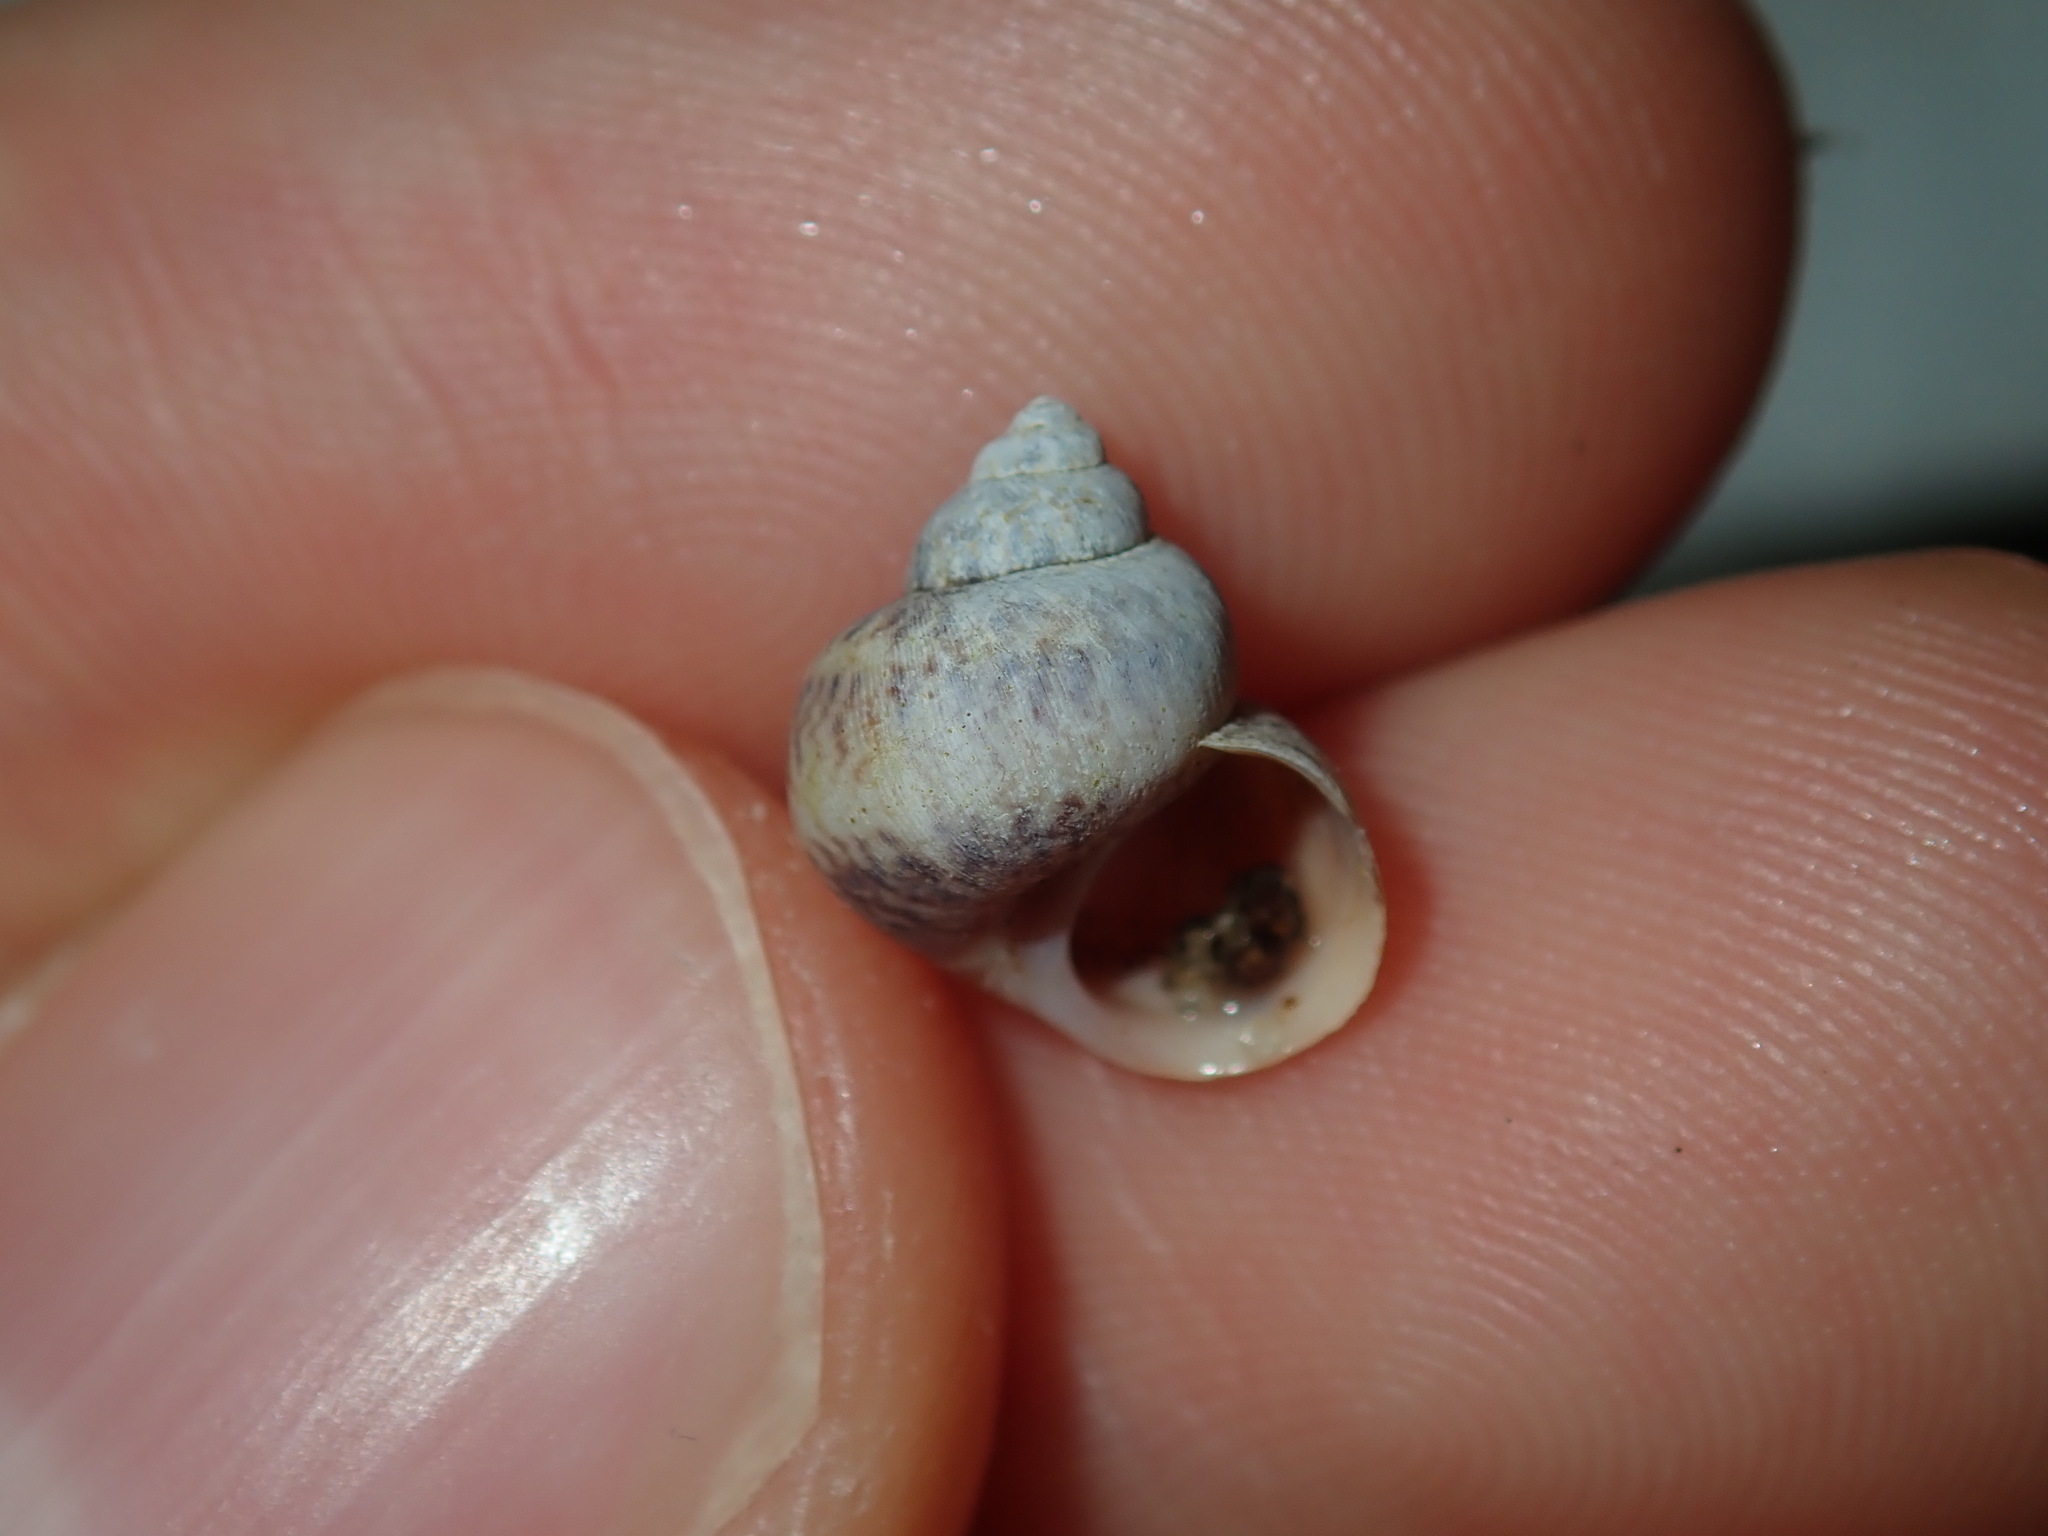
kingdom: Animalia
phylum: Mollusca
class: Gastropoda
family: Amphibolidae
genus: Phallomedusa
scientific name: Phallomedusa solida
